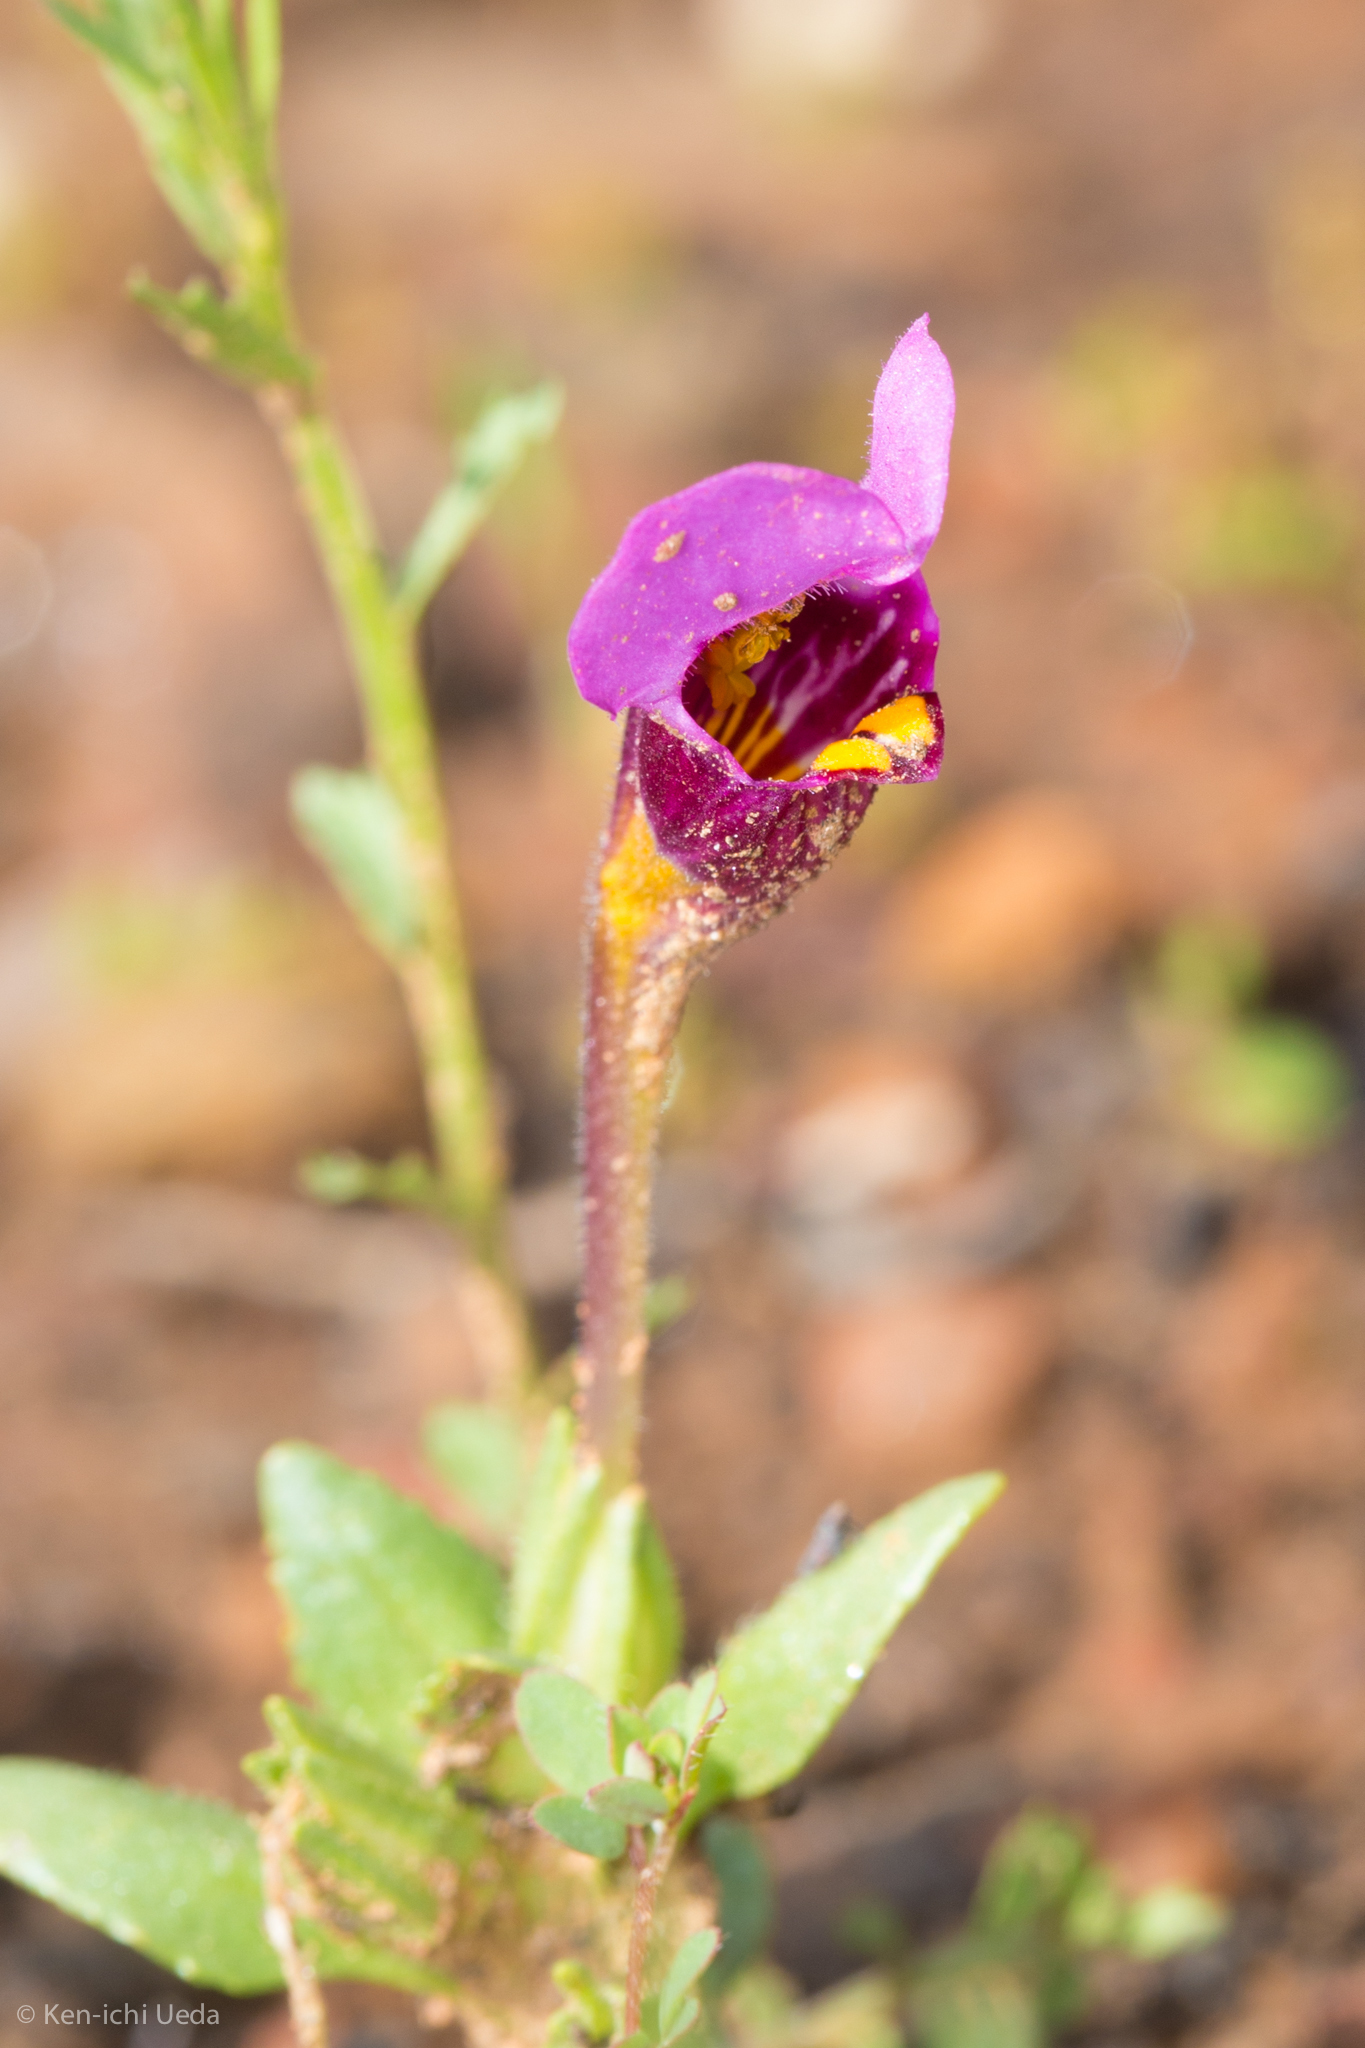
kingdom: Plantae
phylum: Tracheophyta
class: Magnoliopsida
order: Lamiales
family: Phrymaceae
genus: Diplacus
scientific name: Diplacus douglasii
